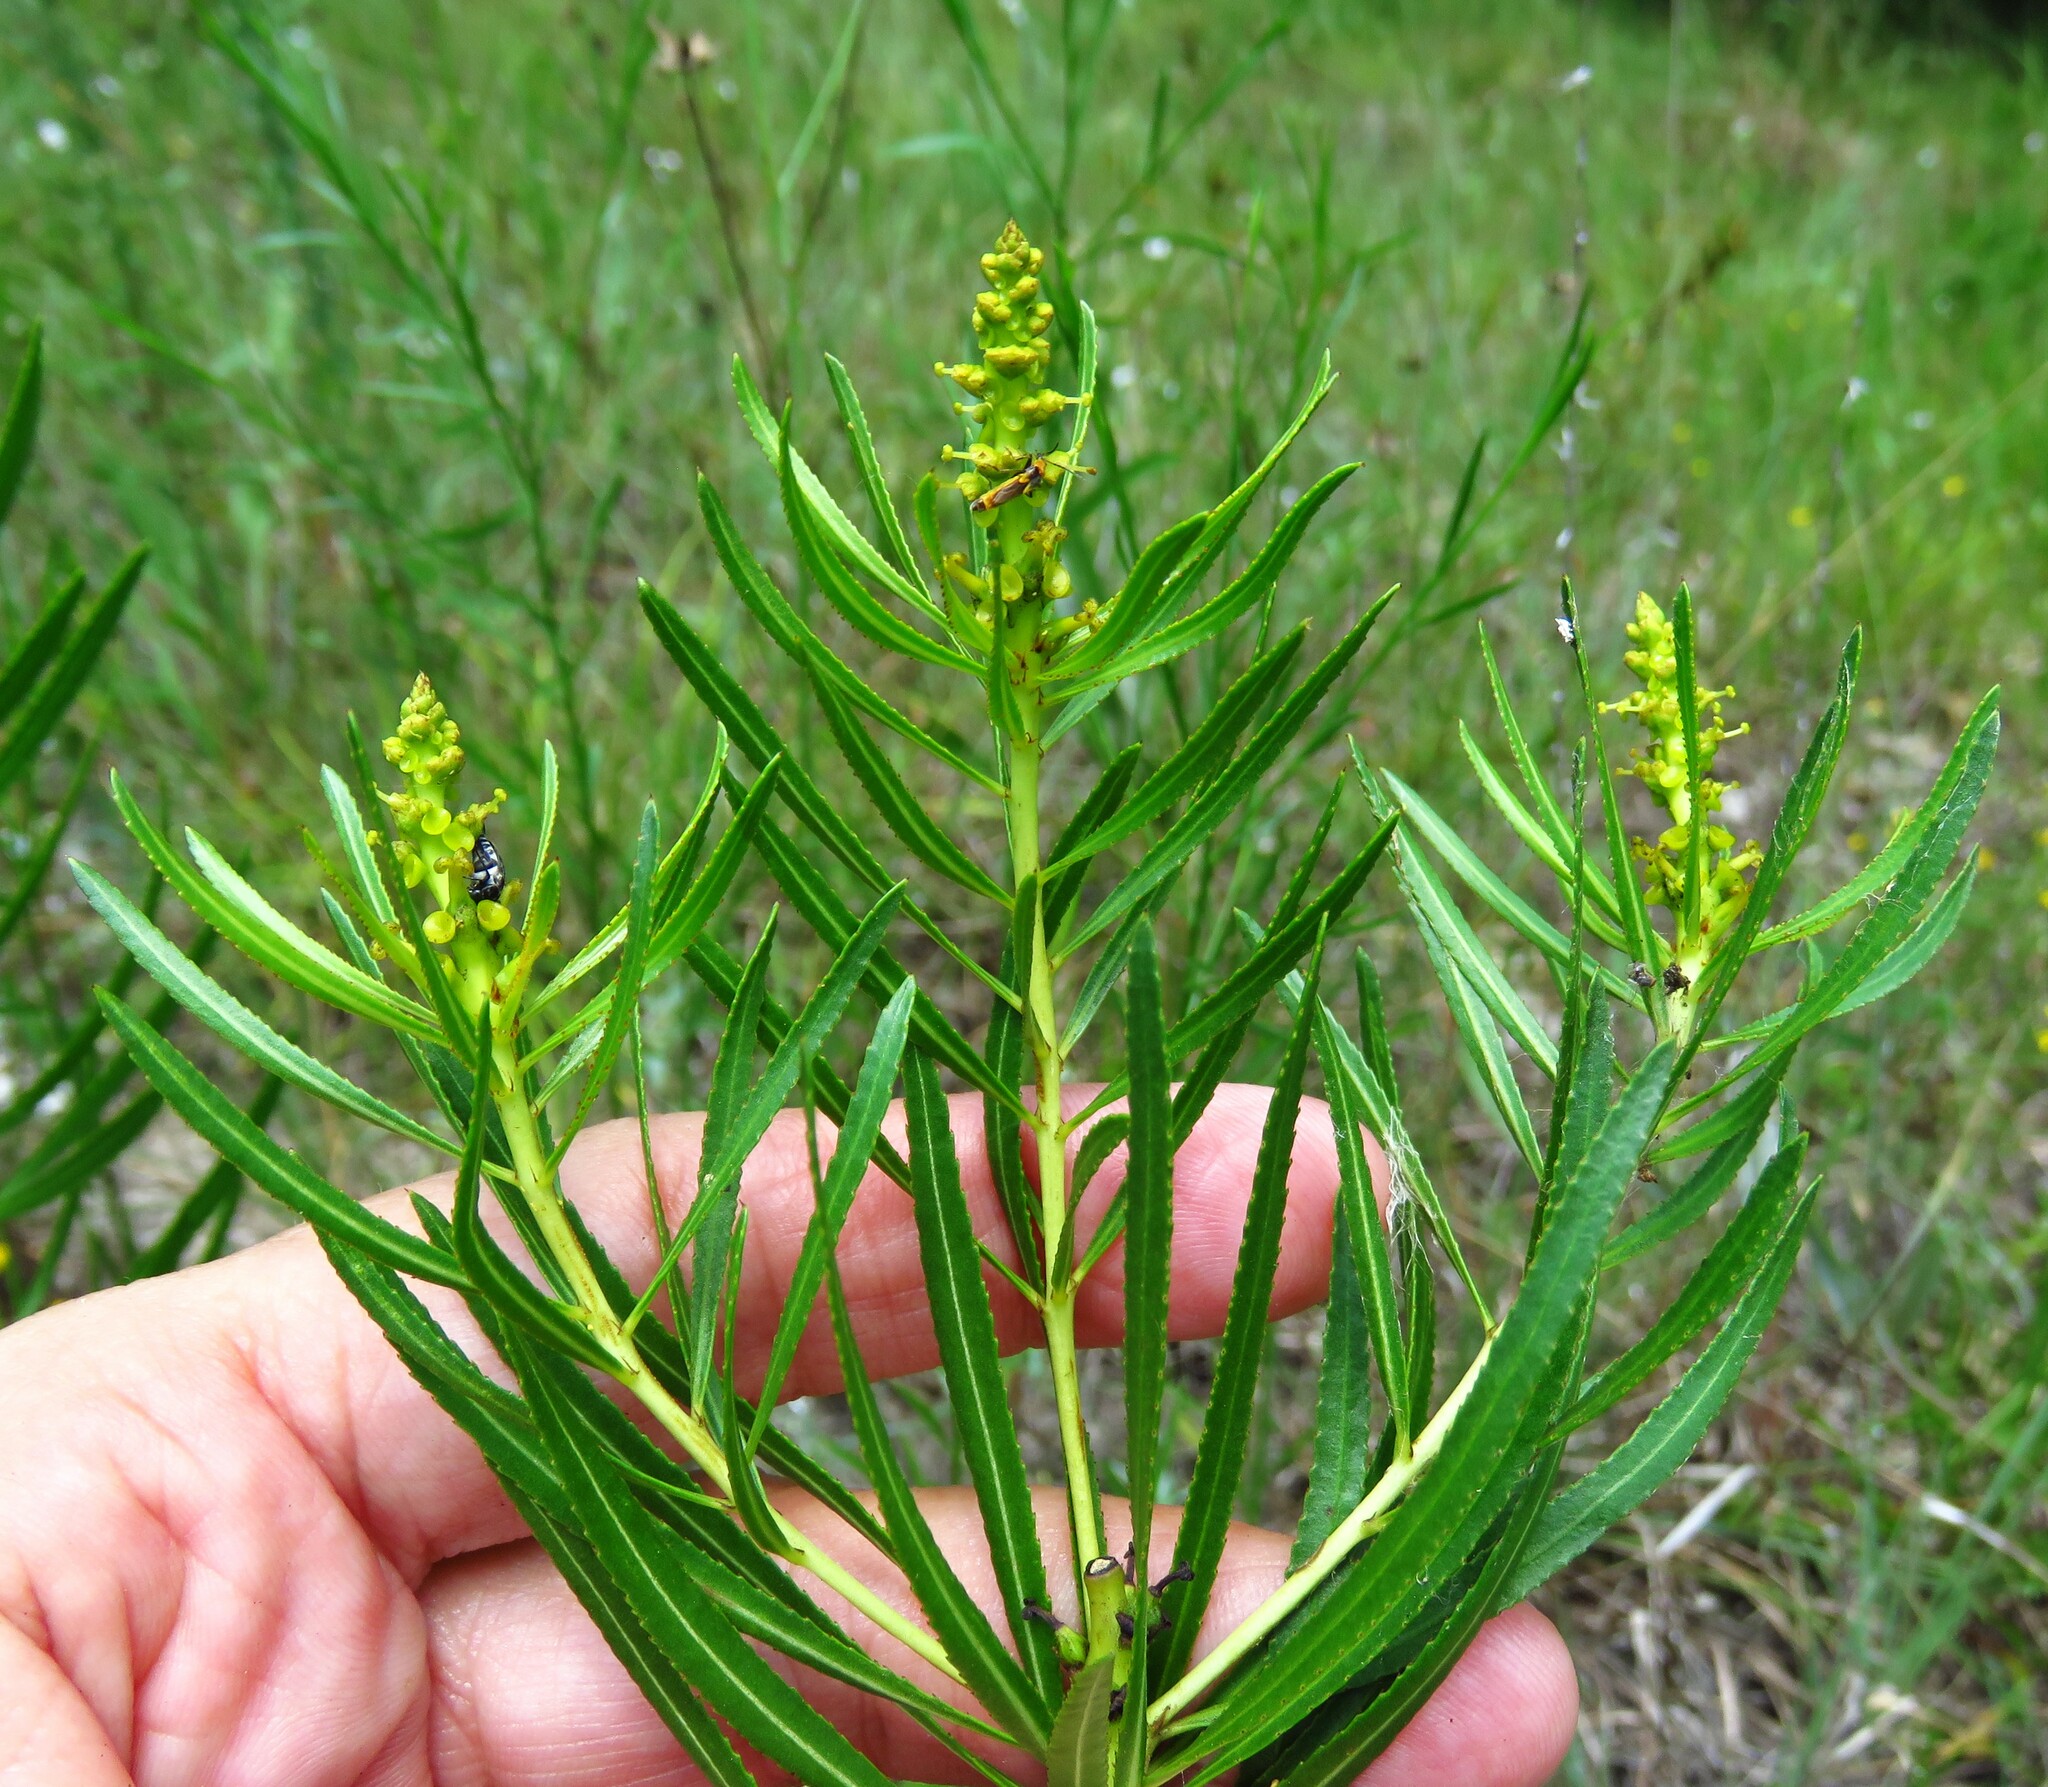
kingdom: Plantae
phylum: Tracheophyta
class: Magnoliopsida
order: Malpighiales
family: Euphorbiaceae
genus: Stillingia
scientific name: Stillingia texana
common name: Texas stillingia
